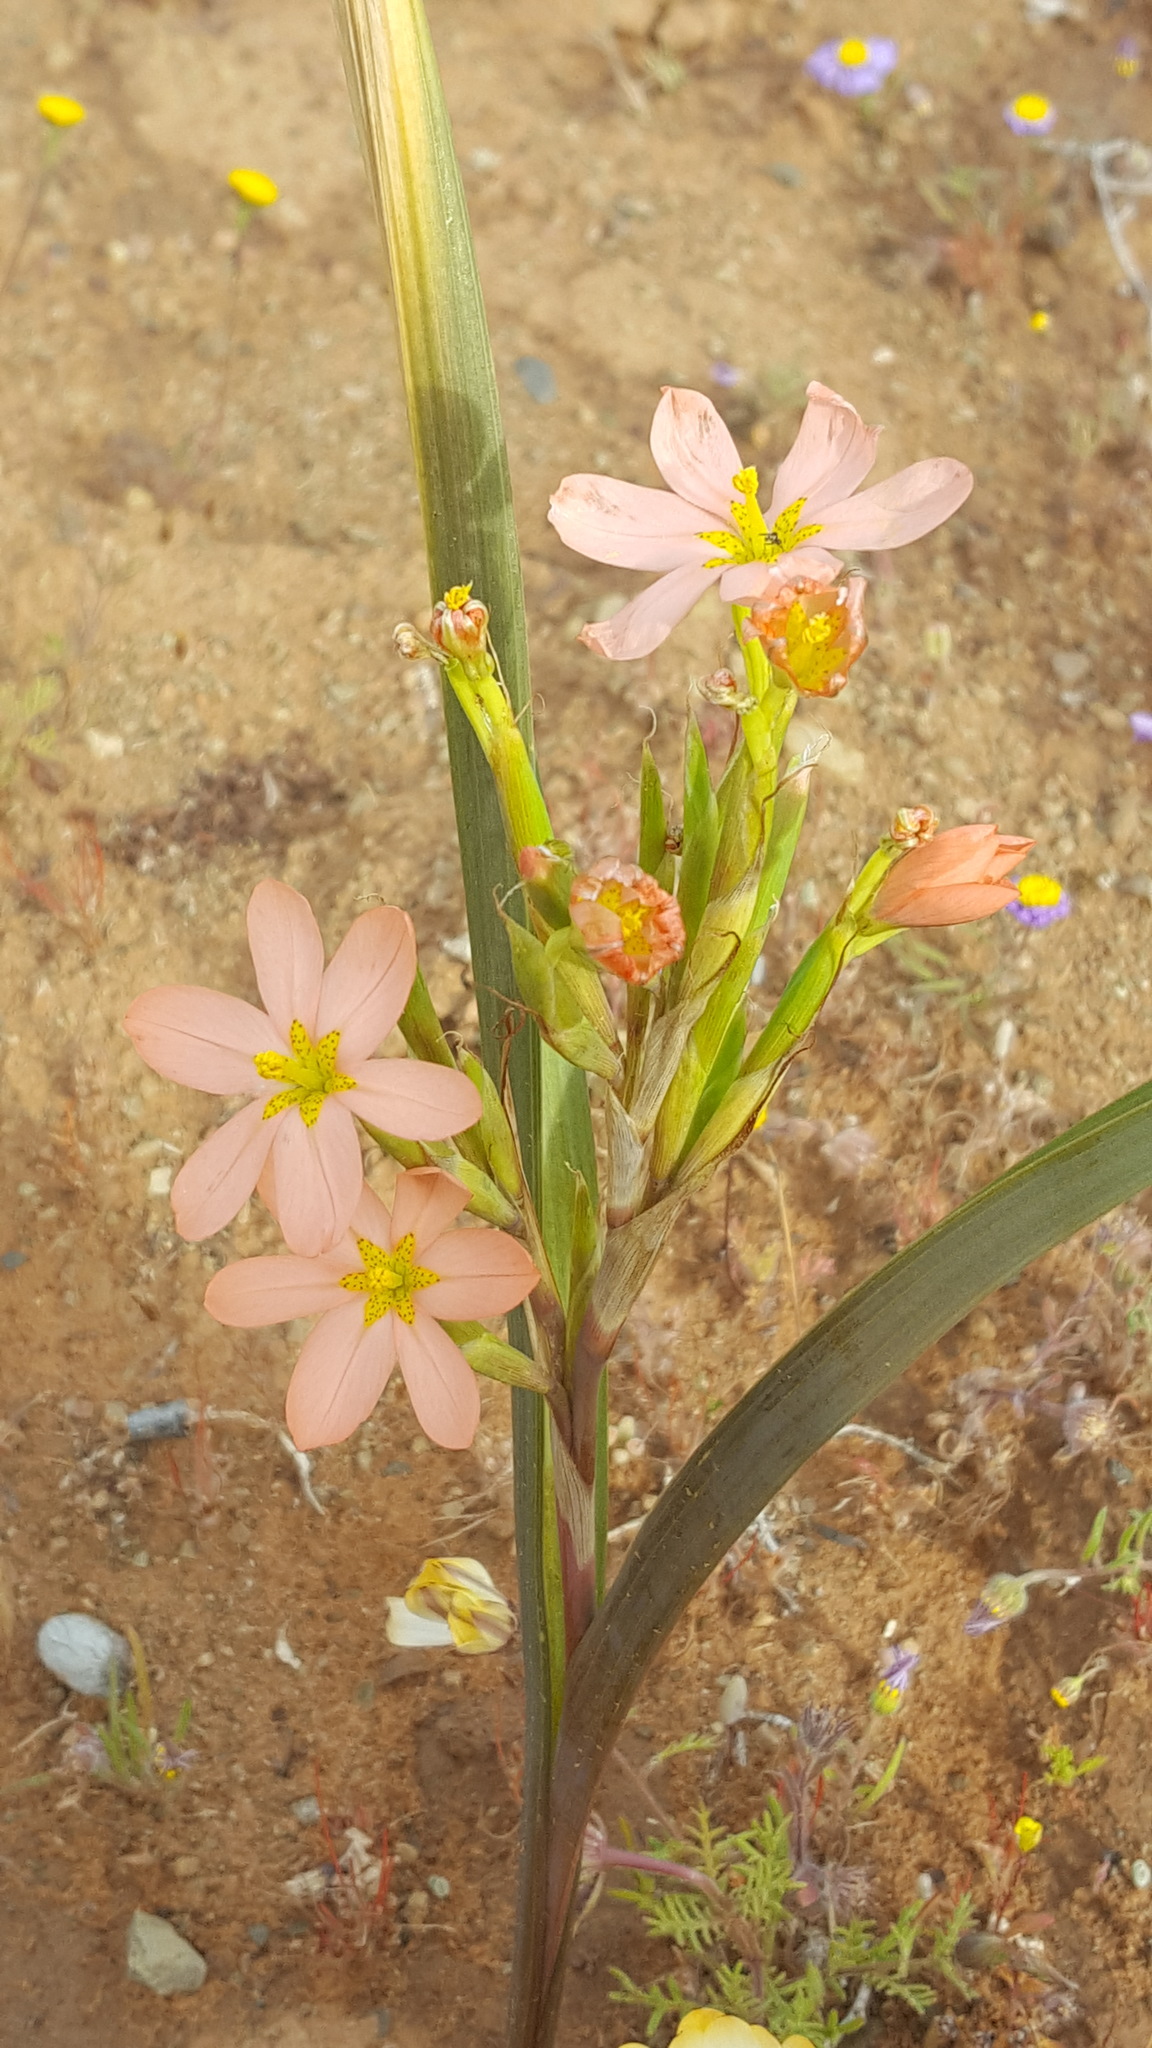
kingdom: Plantae
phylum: Tracheophyta
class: Liliopsida
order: Asparagales
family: Iridaceae
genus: Moraea
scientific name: Moraea miniata
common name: Two-leaf cape-tulip
